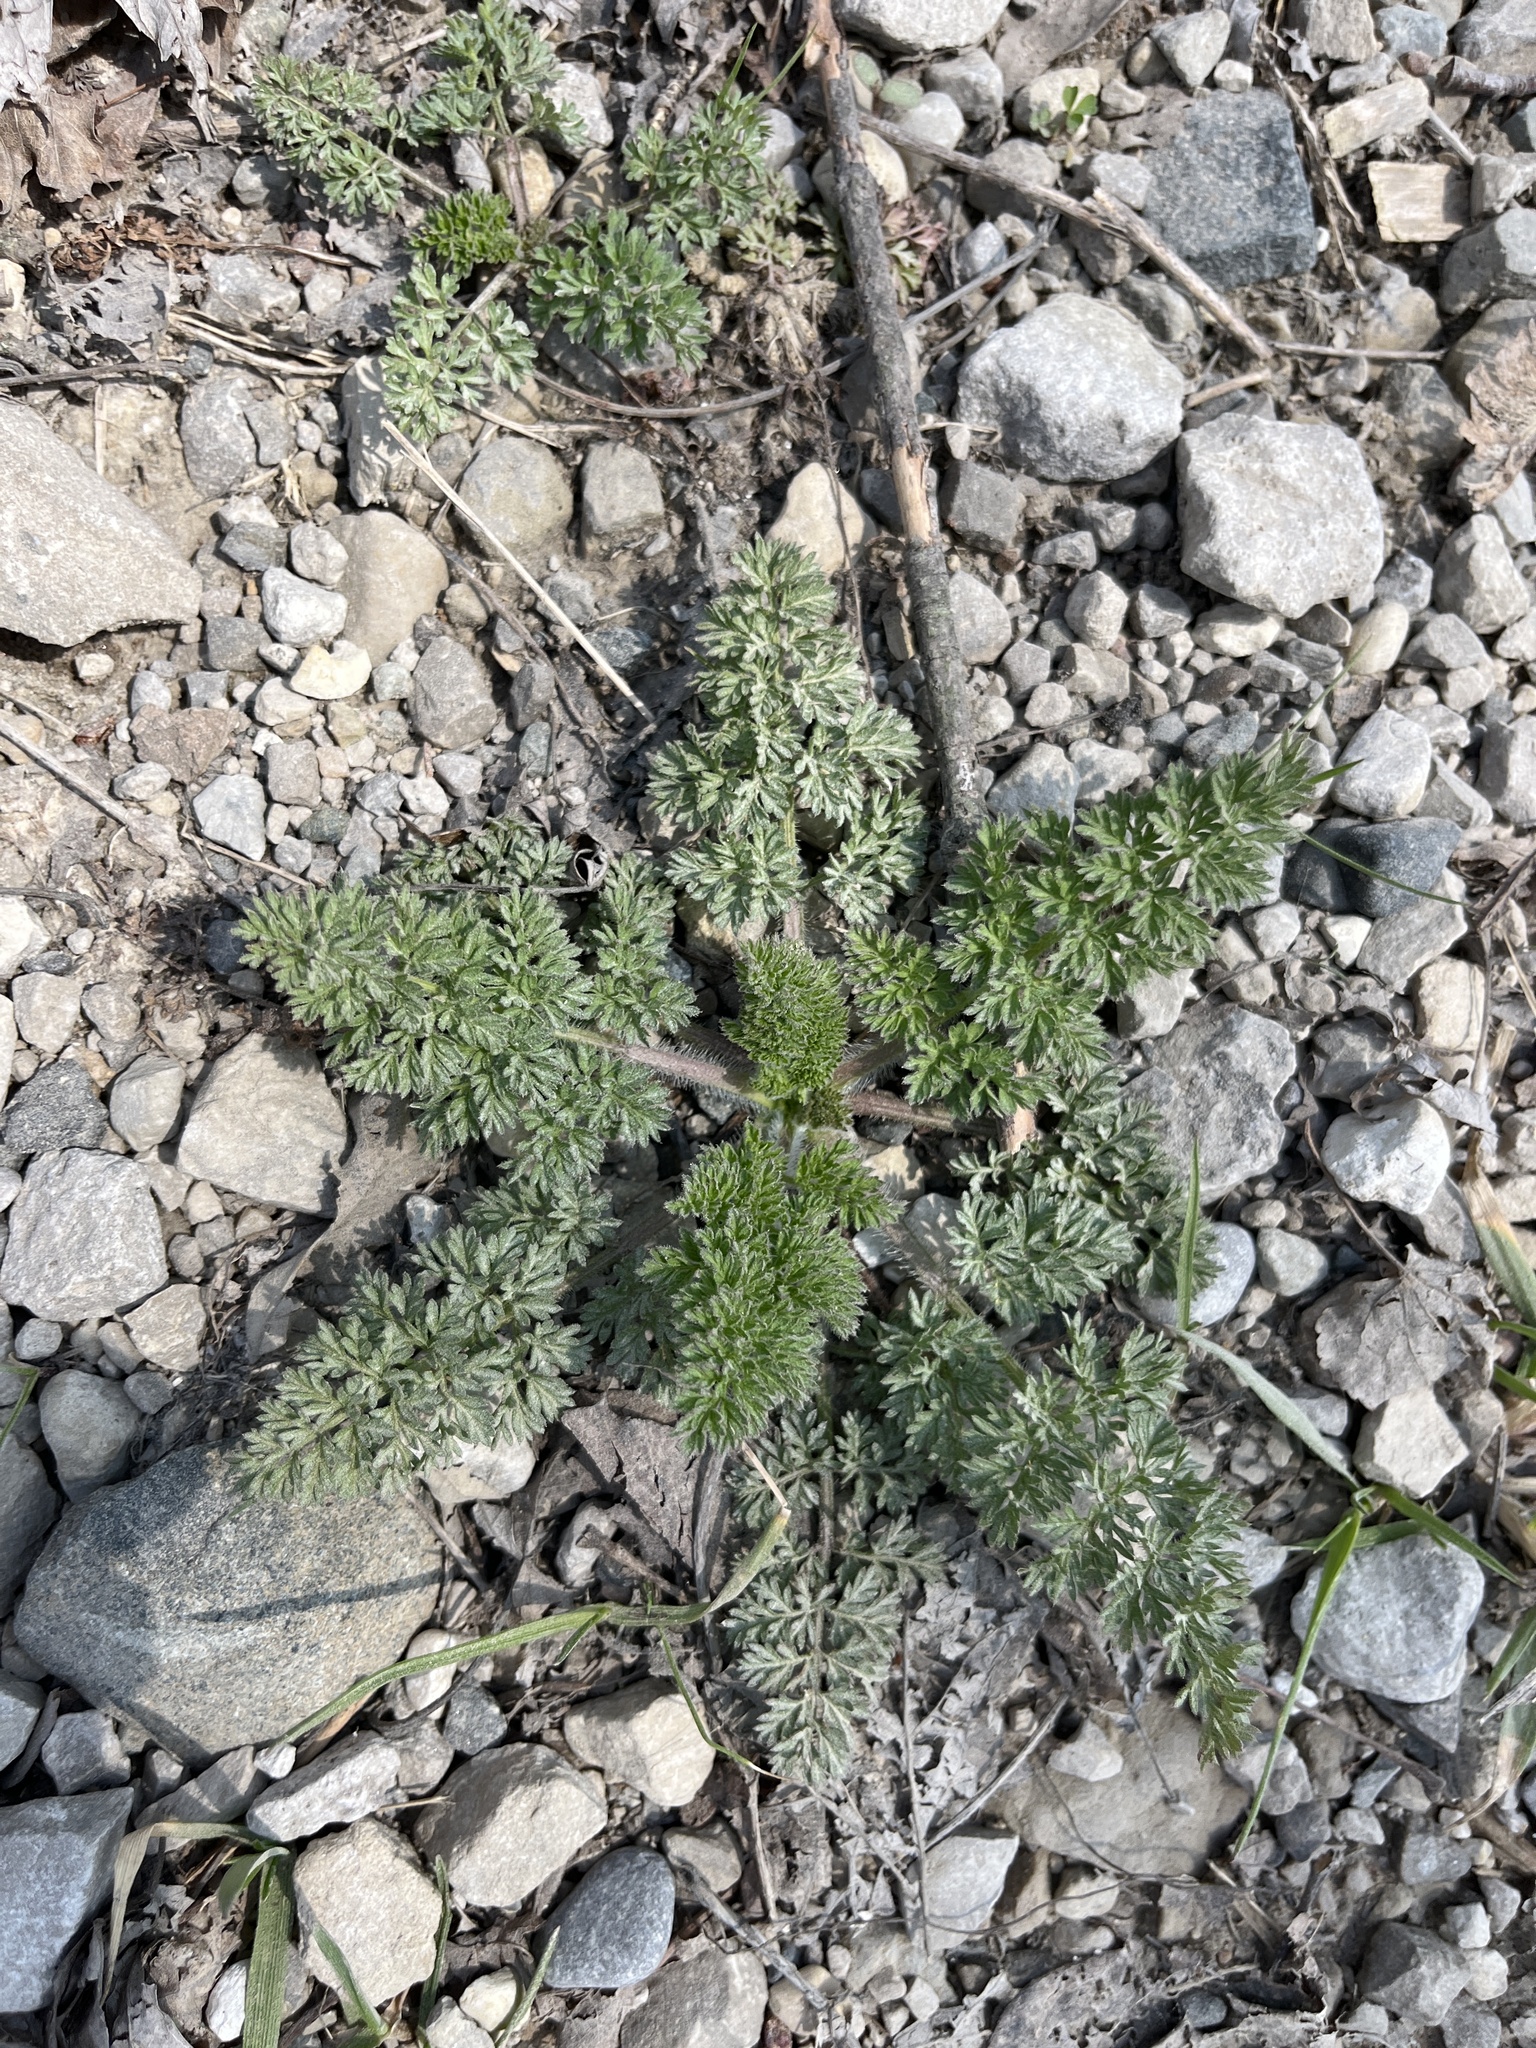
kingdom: Plantae
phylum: Tracheophyta
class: Magnoliopsida
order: Apiales
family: Apiaceae
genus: Daucus
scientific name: Daucus carota
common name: Wild carrot
